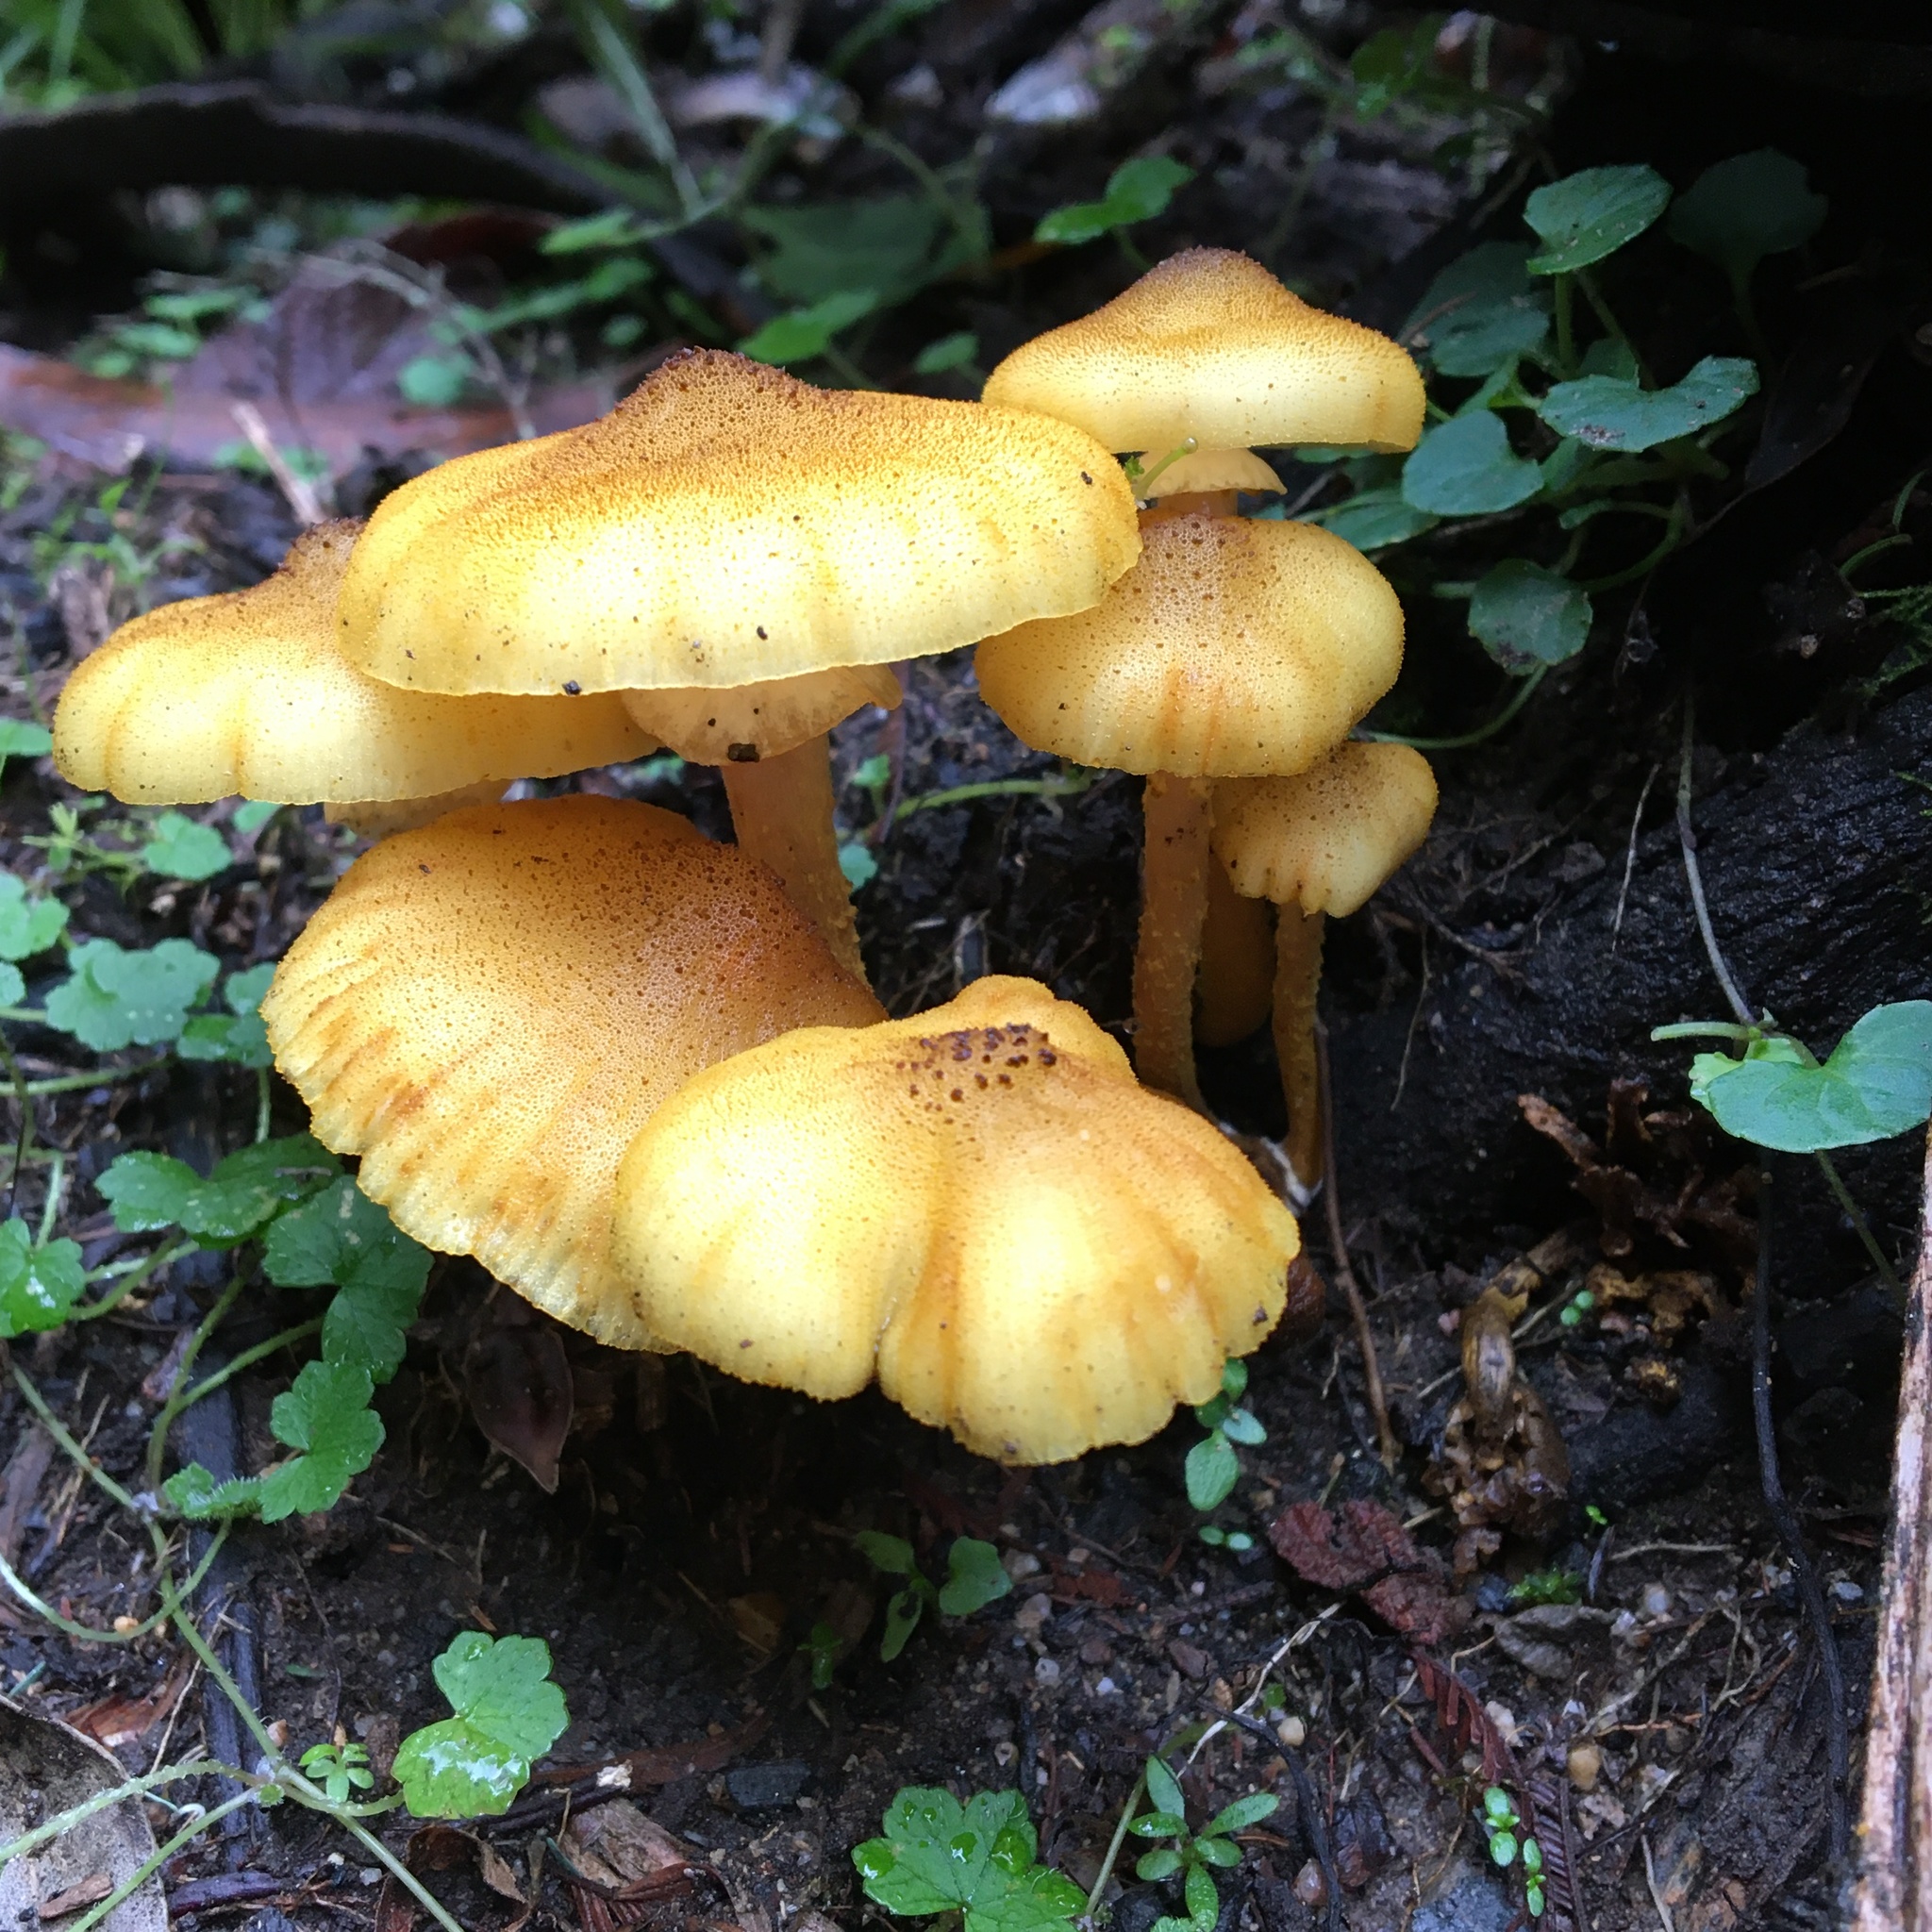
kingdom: Fungi
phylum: Basidiomycota
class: Agaricomycetes
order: Agaricales
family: Physalacriaceae
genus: Armillaria
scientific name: Armillaria luteobubalina
